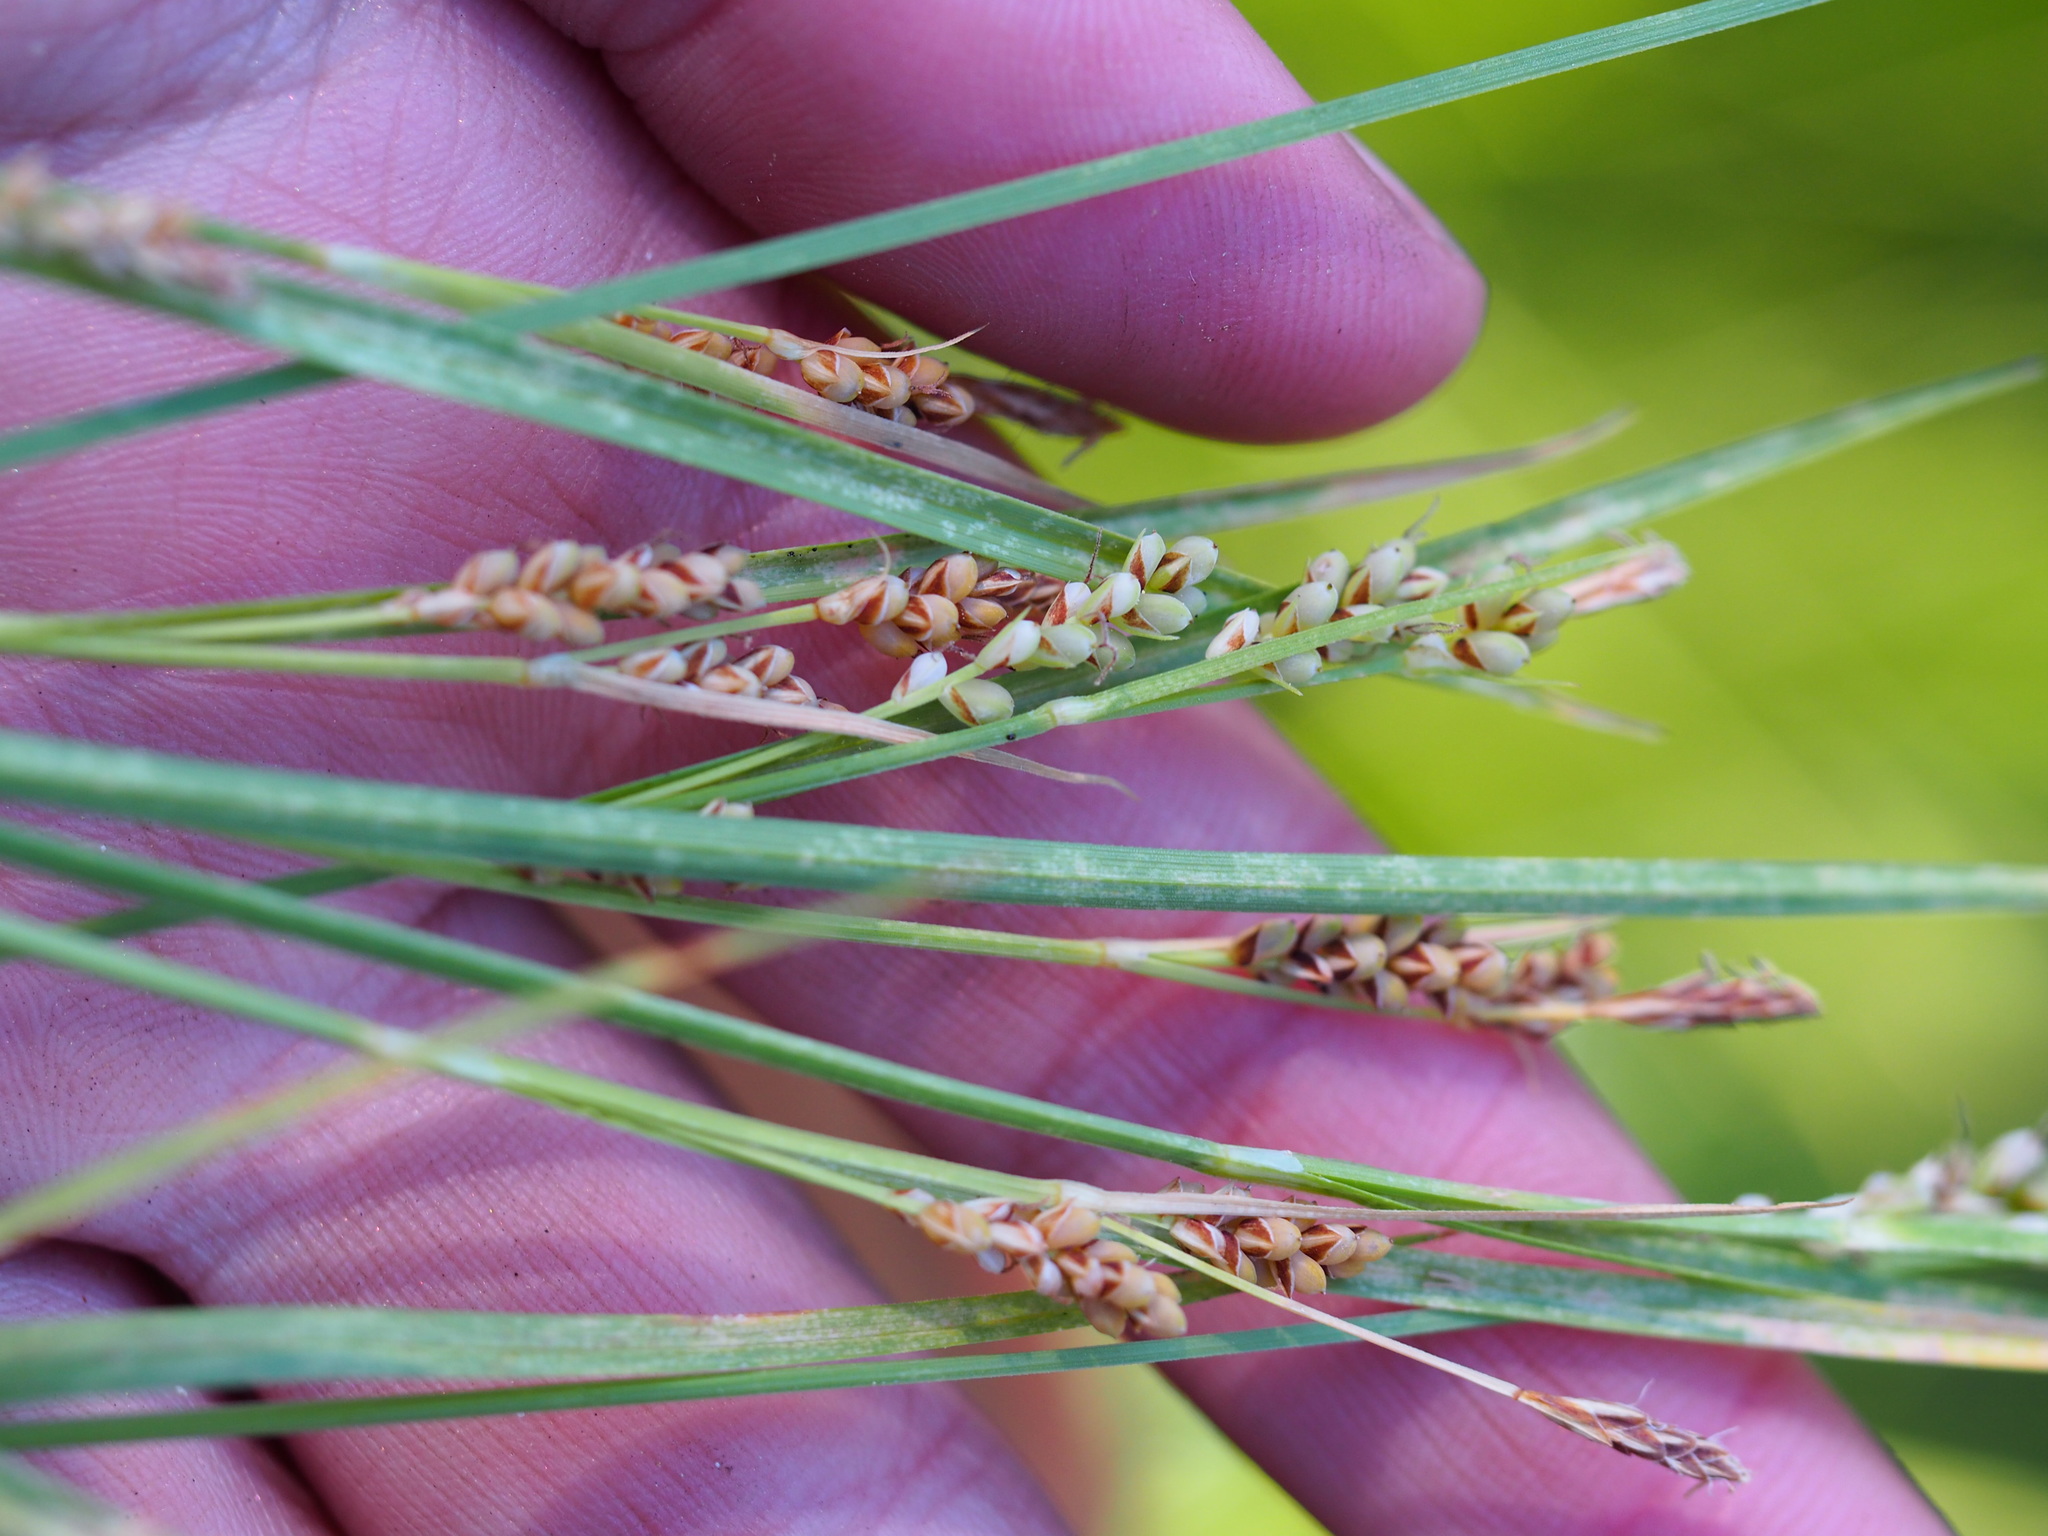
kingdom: Plantae
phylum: Tracheophyta
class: Liliopsida
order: Poales
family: Cyperaceae
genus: Carex
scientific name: Carex aurea
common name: Golden sedge
